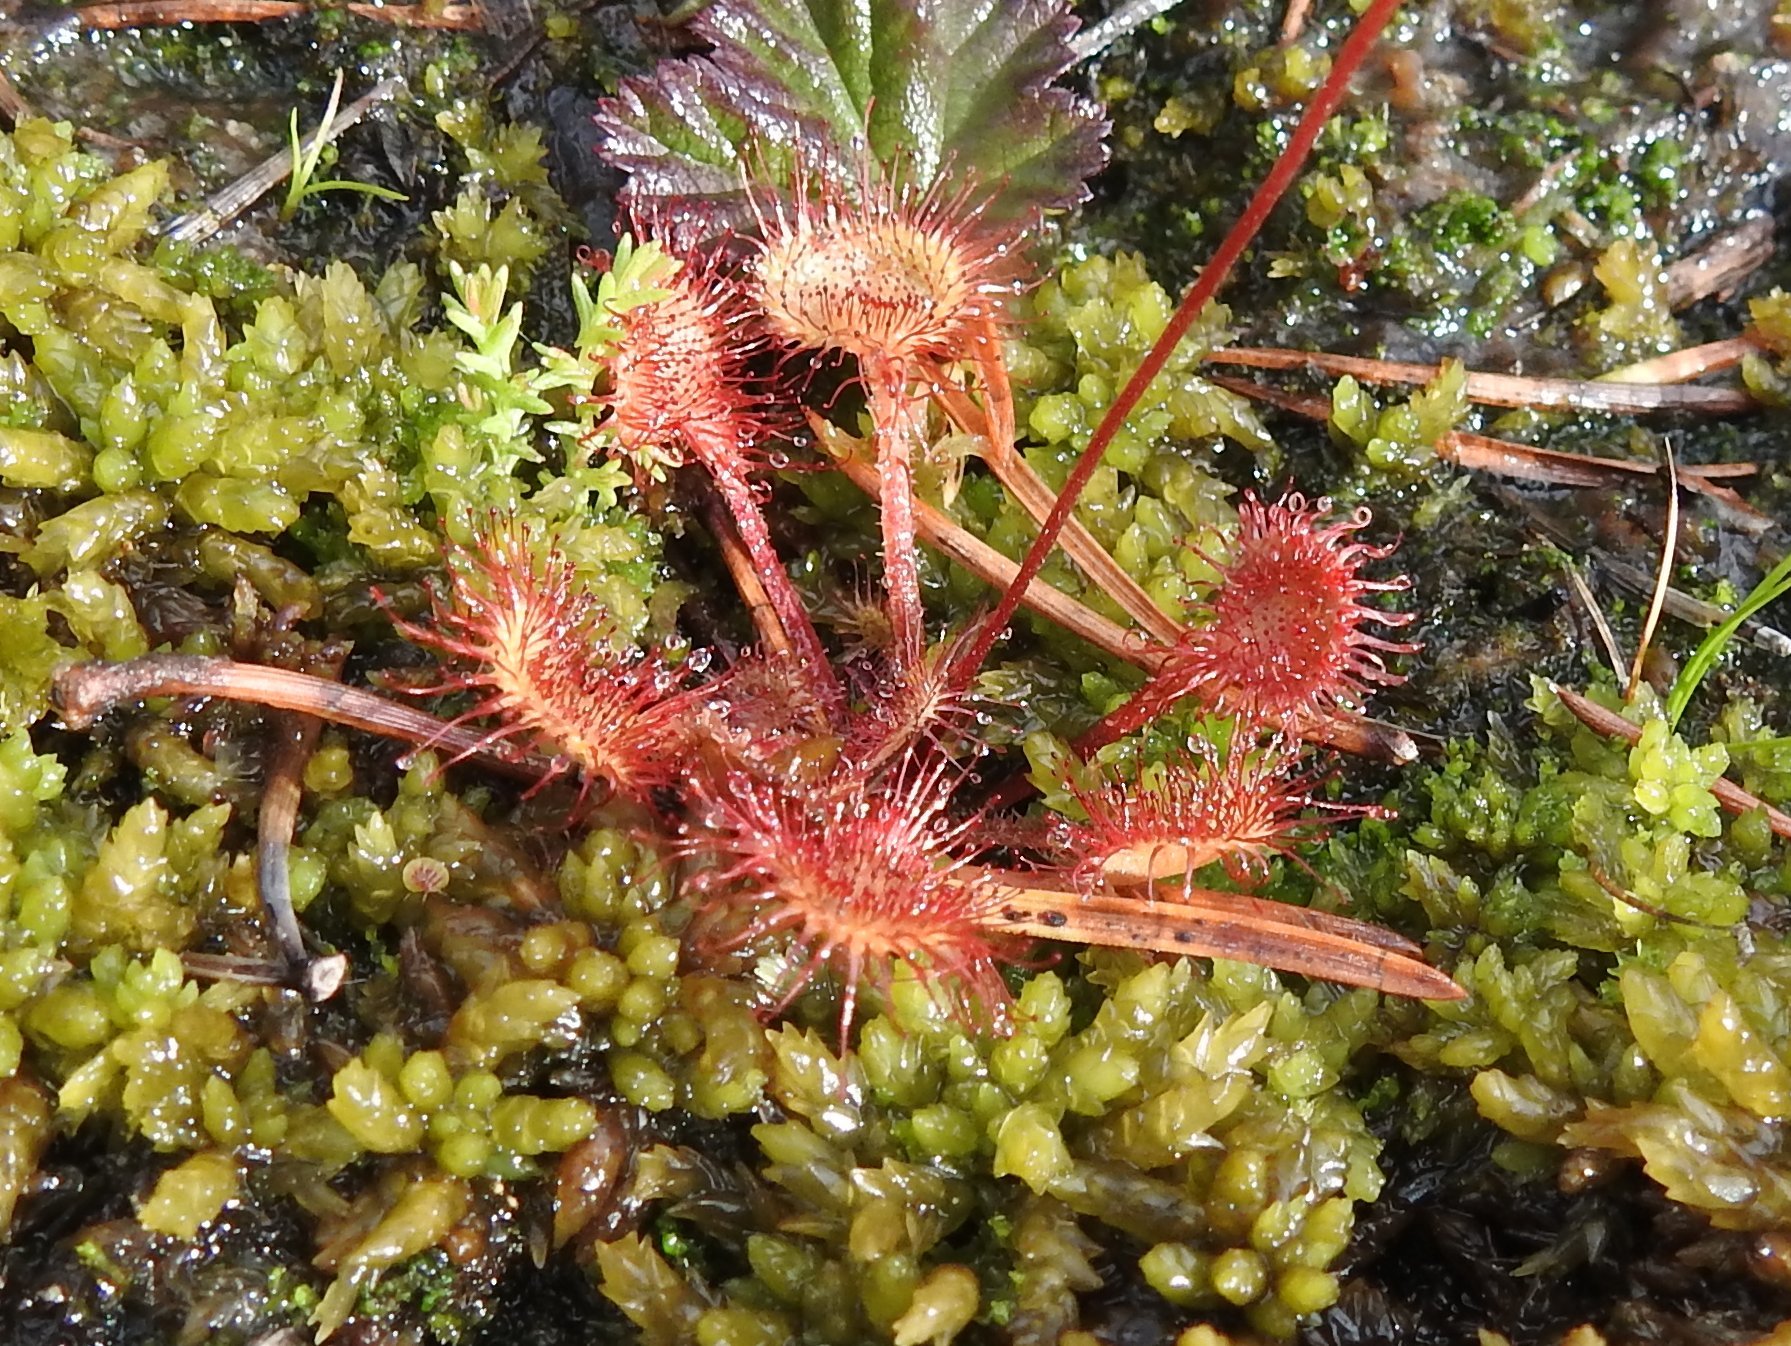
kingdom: Plantae
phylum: Tracheophyta
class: Magnoliopsida
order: Caryophyllales
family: Droseraceae
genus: Drosera
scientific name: Drosera rotundifolia
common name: Round-leaved sundew
